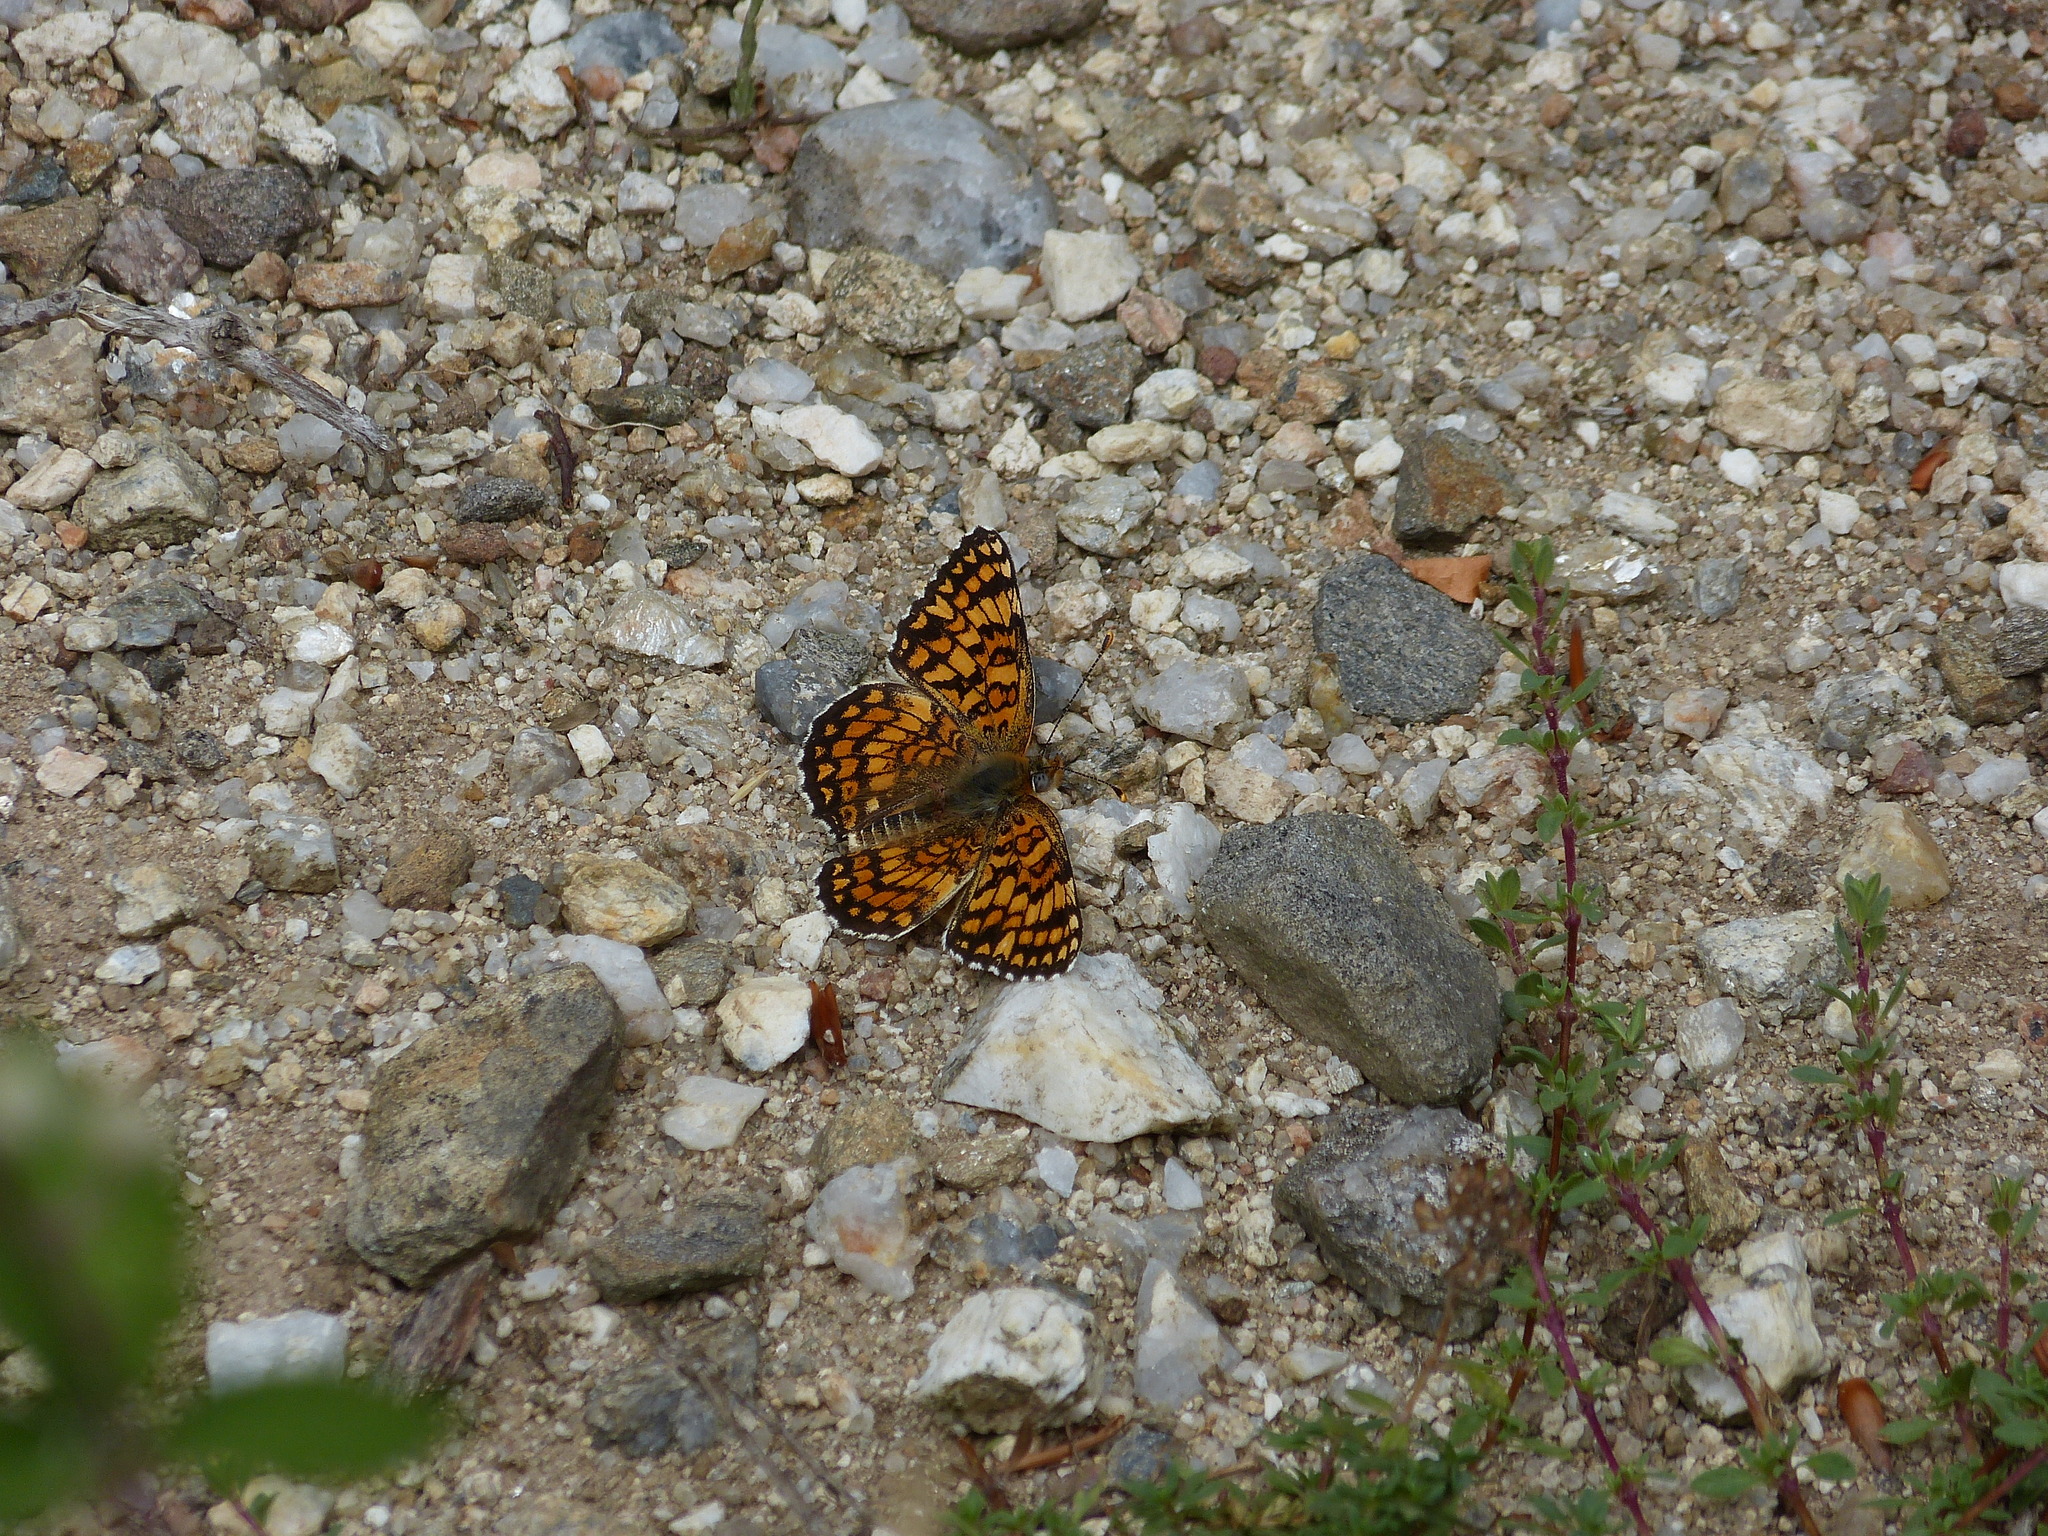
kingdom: Animalia
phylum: Arthropoda
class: Insecta
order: Lepidoptera
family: Nymphalidae
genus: Melitaea
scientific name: Melitaea phoebe
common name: Knapweed fritillary
